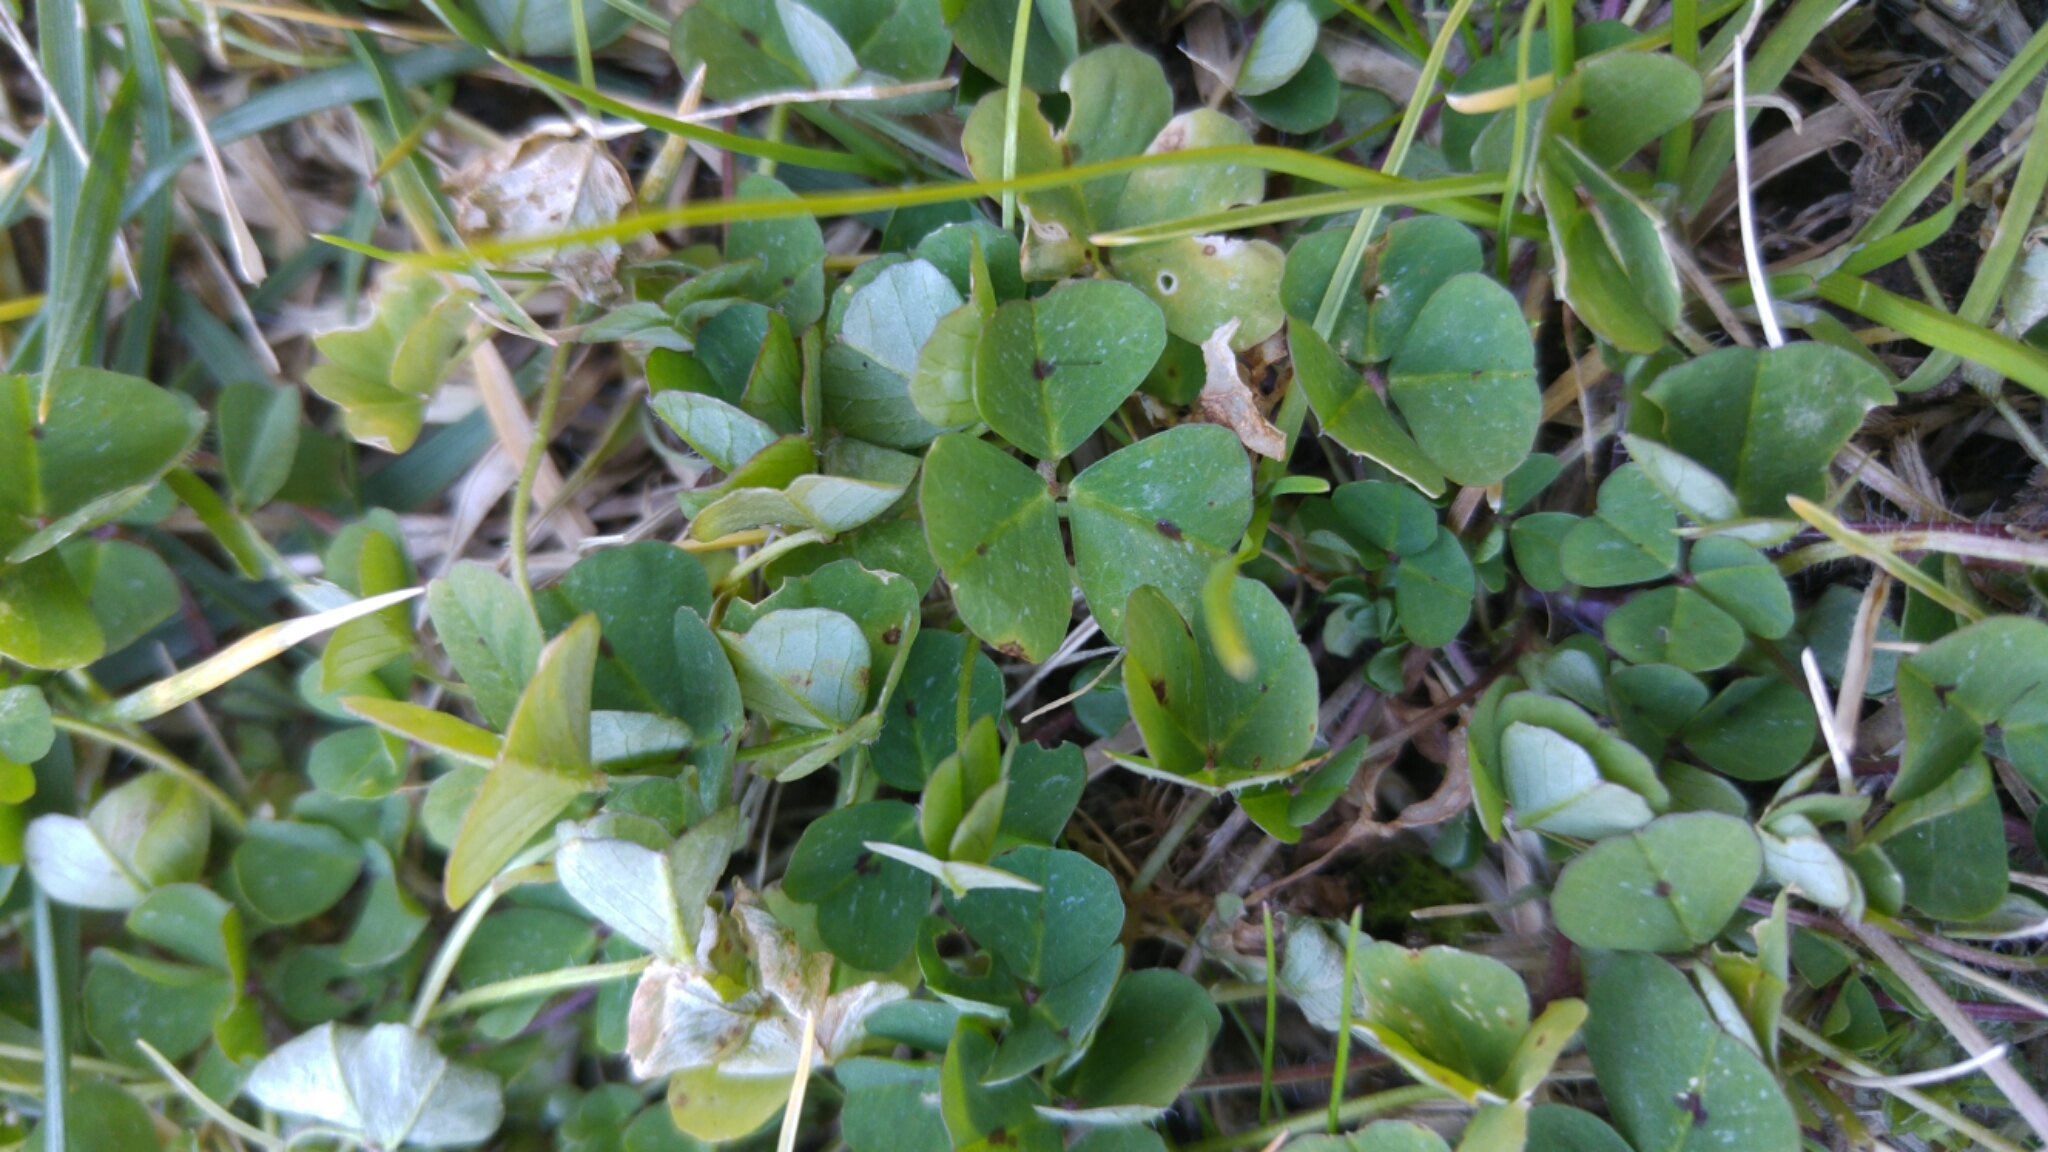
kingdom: Plantae
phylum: Tracheophyta
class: Magnoliopsida
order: Fabales
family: Fabaceae
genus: Medicago
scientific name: Medicago arabica
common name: Spotted medick
